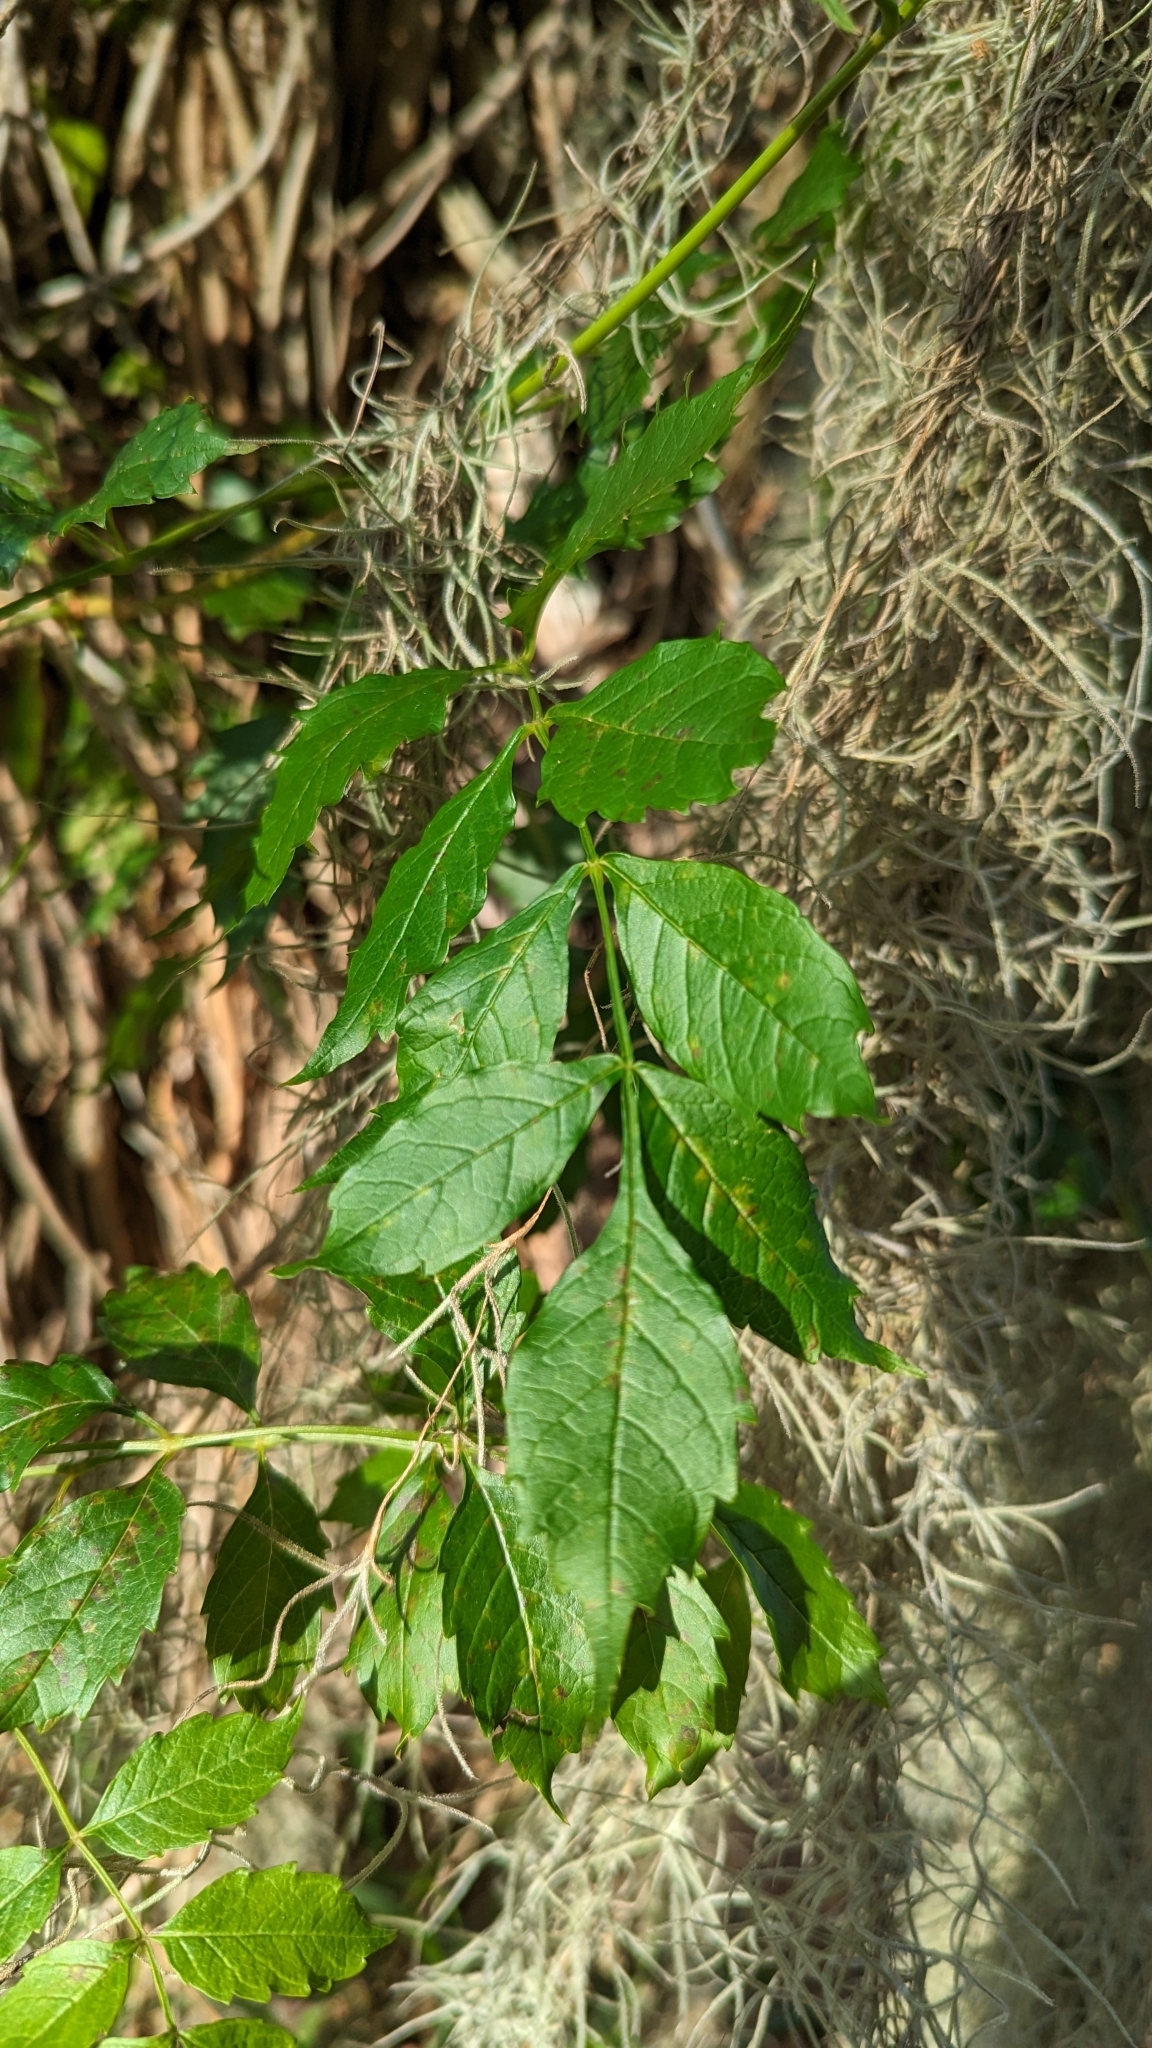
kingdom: Plantae
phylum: Tracheophyta
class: Magnoliopsida
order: Lamiales
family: Bignoniaceae
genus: Campsis
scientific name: Campsis radicans
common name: Trumpet-creeper
